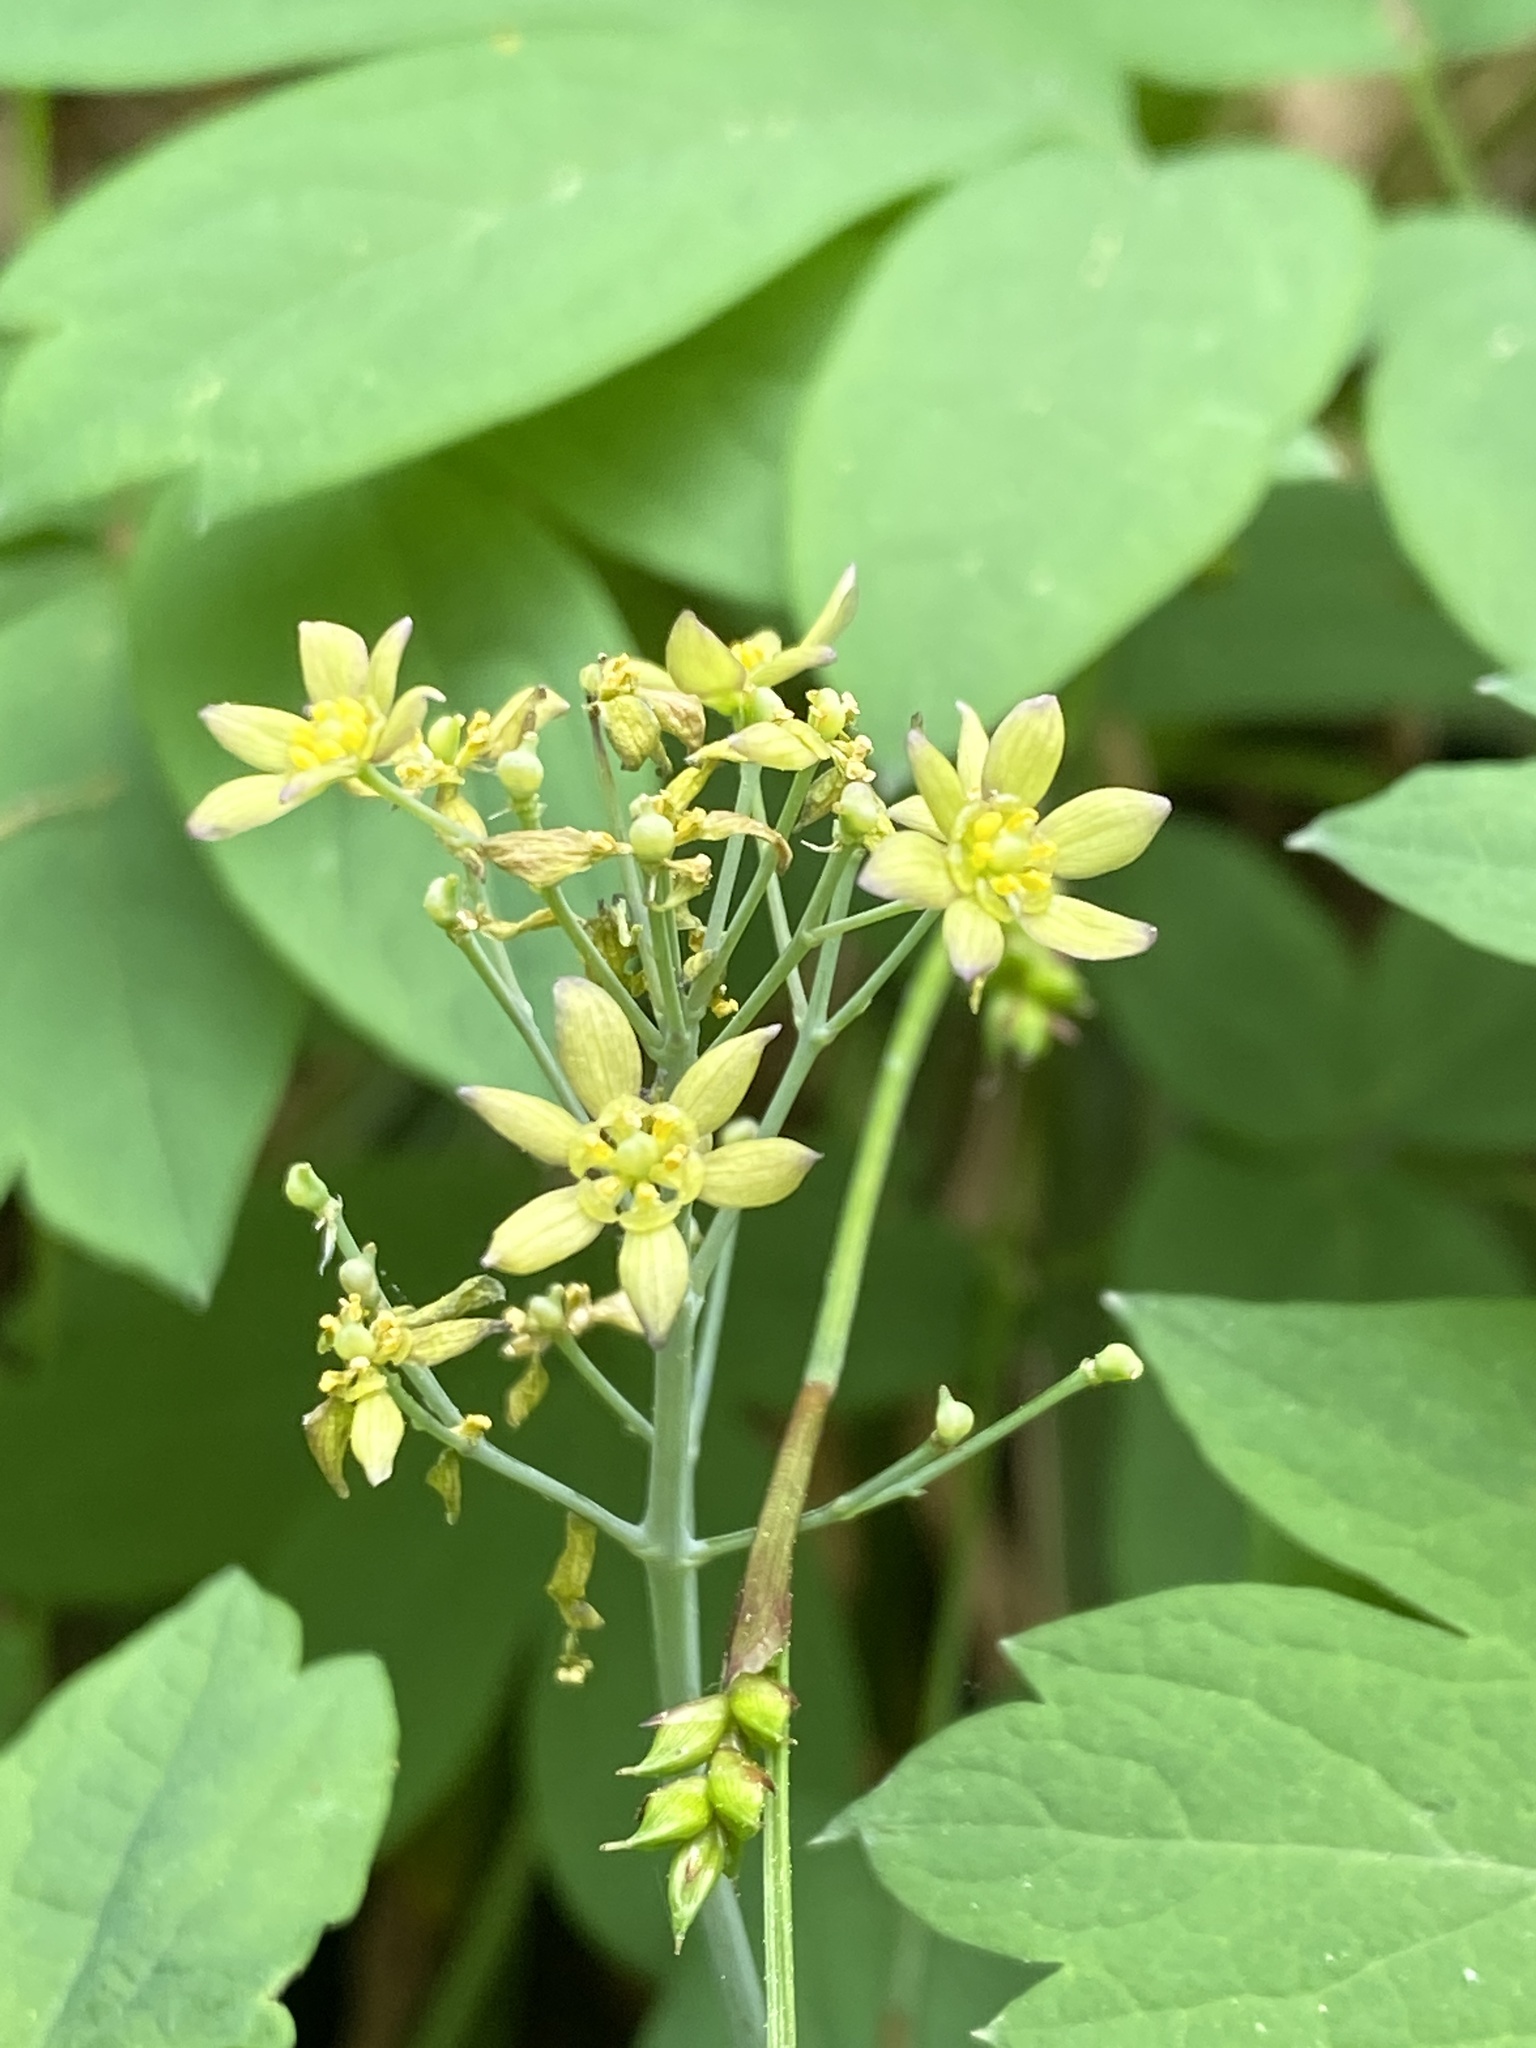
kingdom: Plantae
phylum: Tracheophyta
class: Magnoliopsida
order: Ranunculales
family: Berberidaceae
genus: Caulophyllum
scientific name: Caulophyllum thalictroides
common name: Blue cohosh
